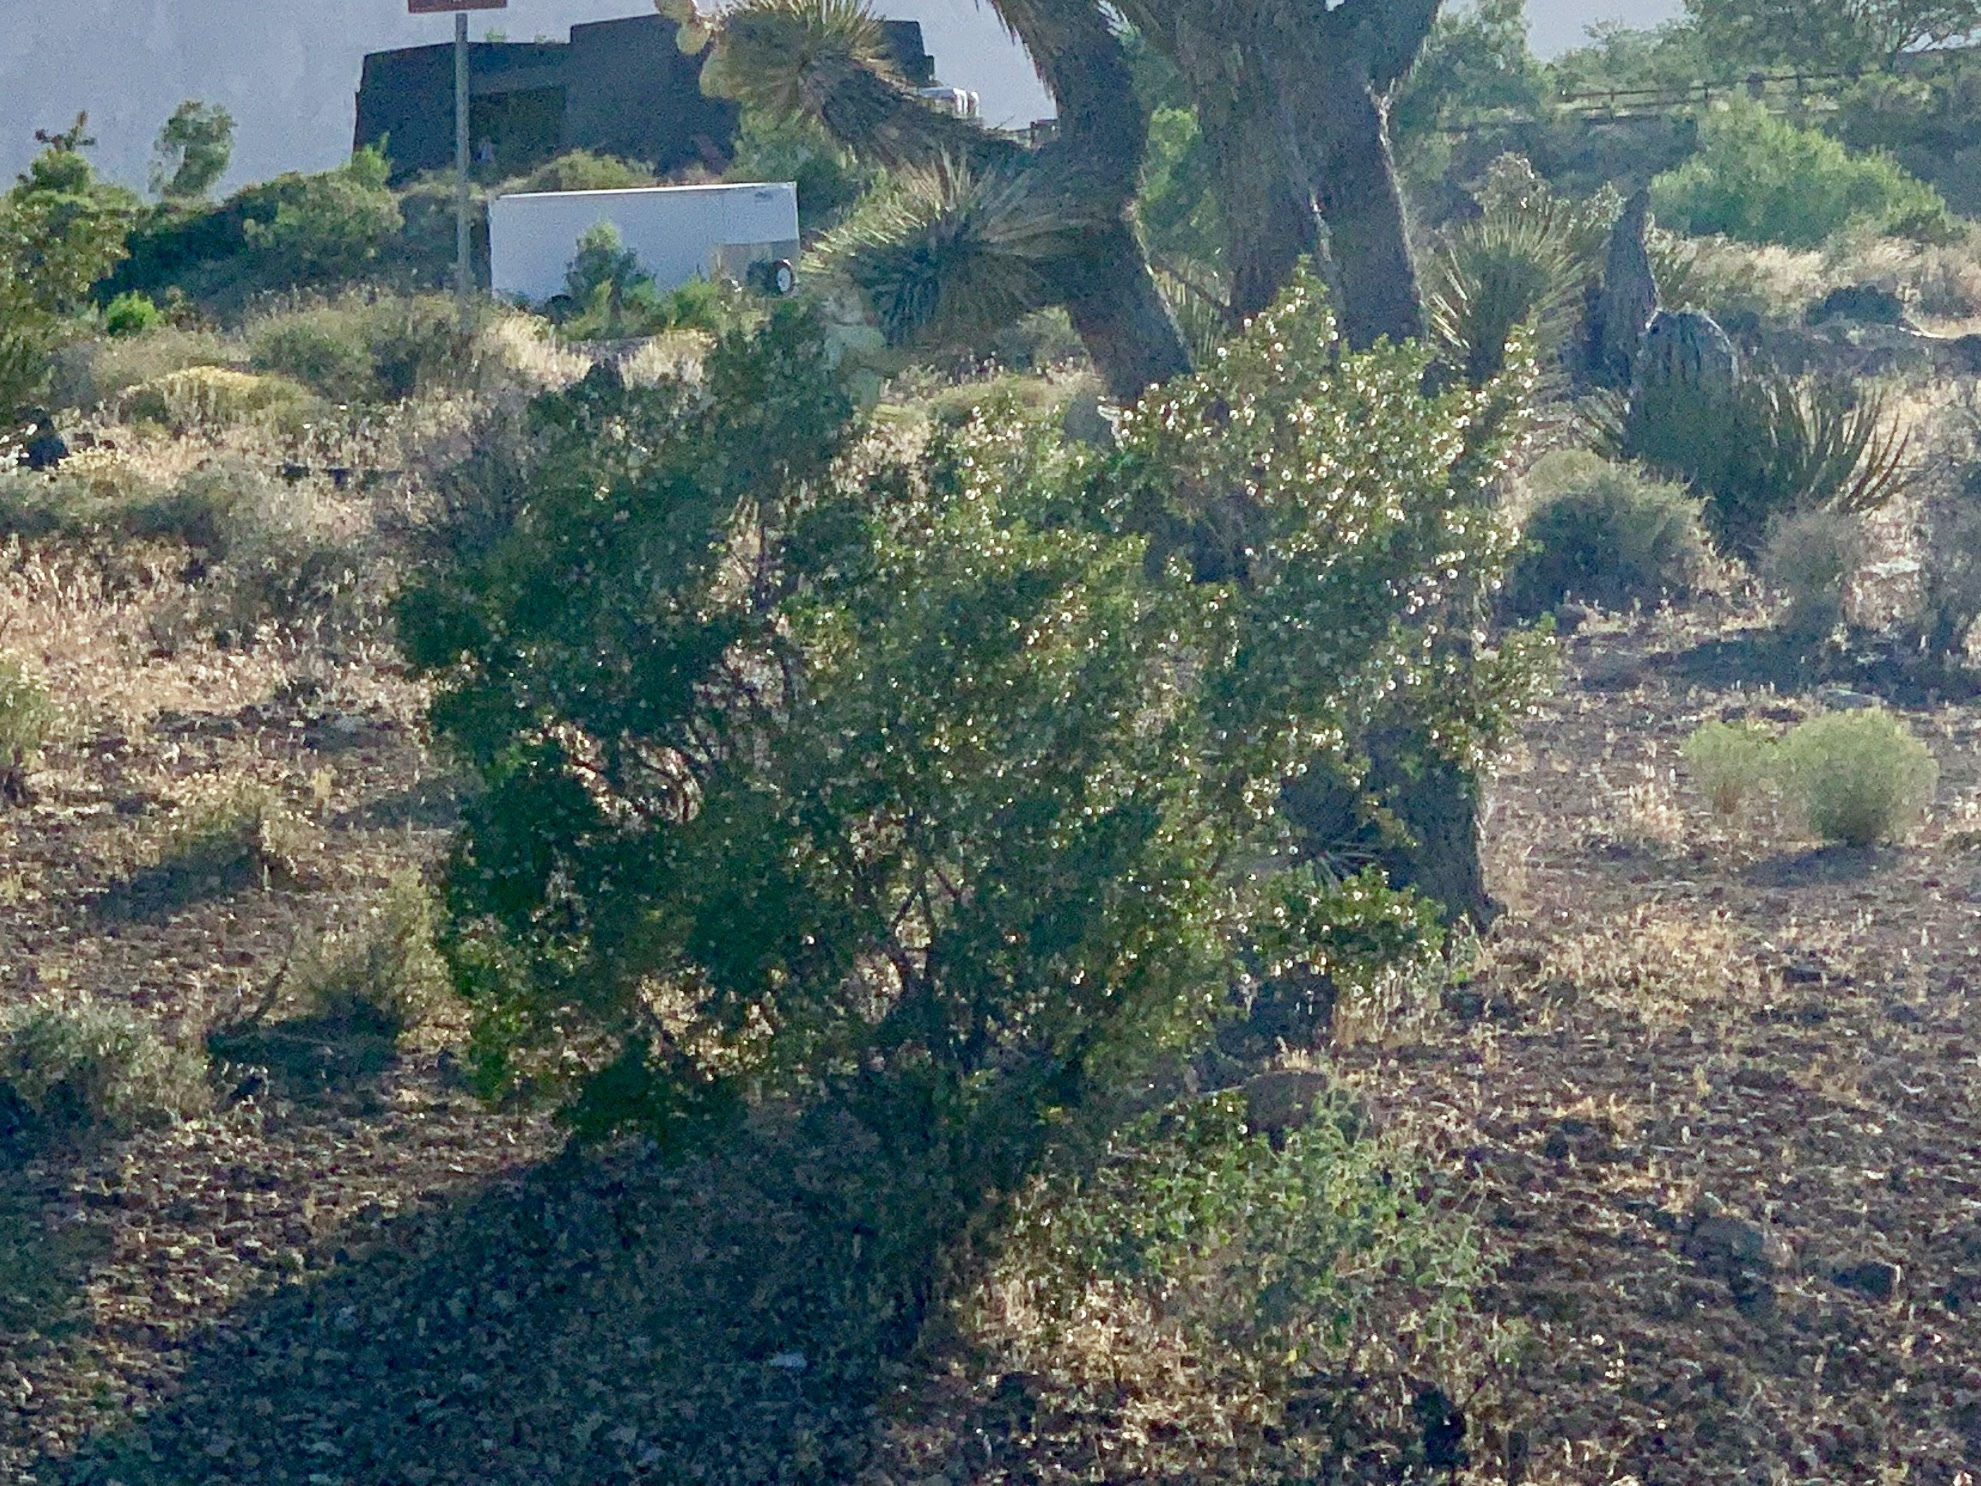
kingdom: Plantae
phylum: Tracheophyta
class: Magnoliopsida
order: Zygophyllales
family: Zygophyllaceae
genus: Larrea
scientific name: Larrea tridentata
